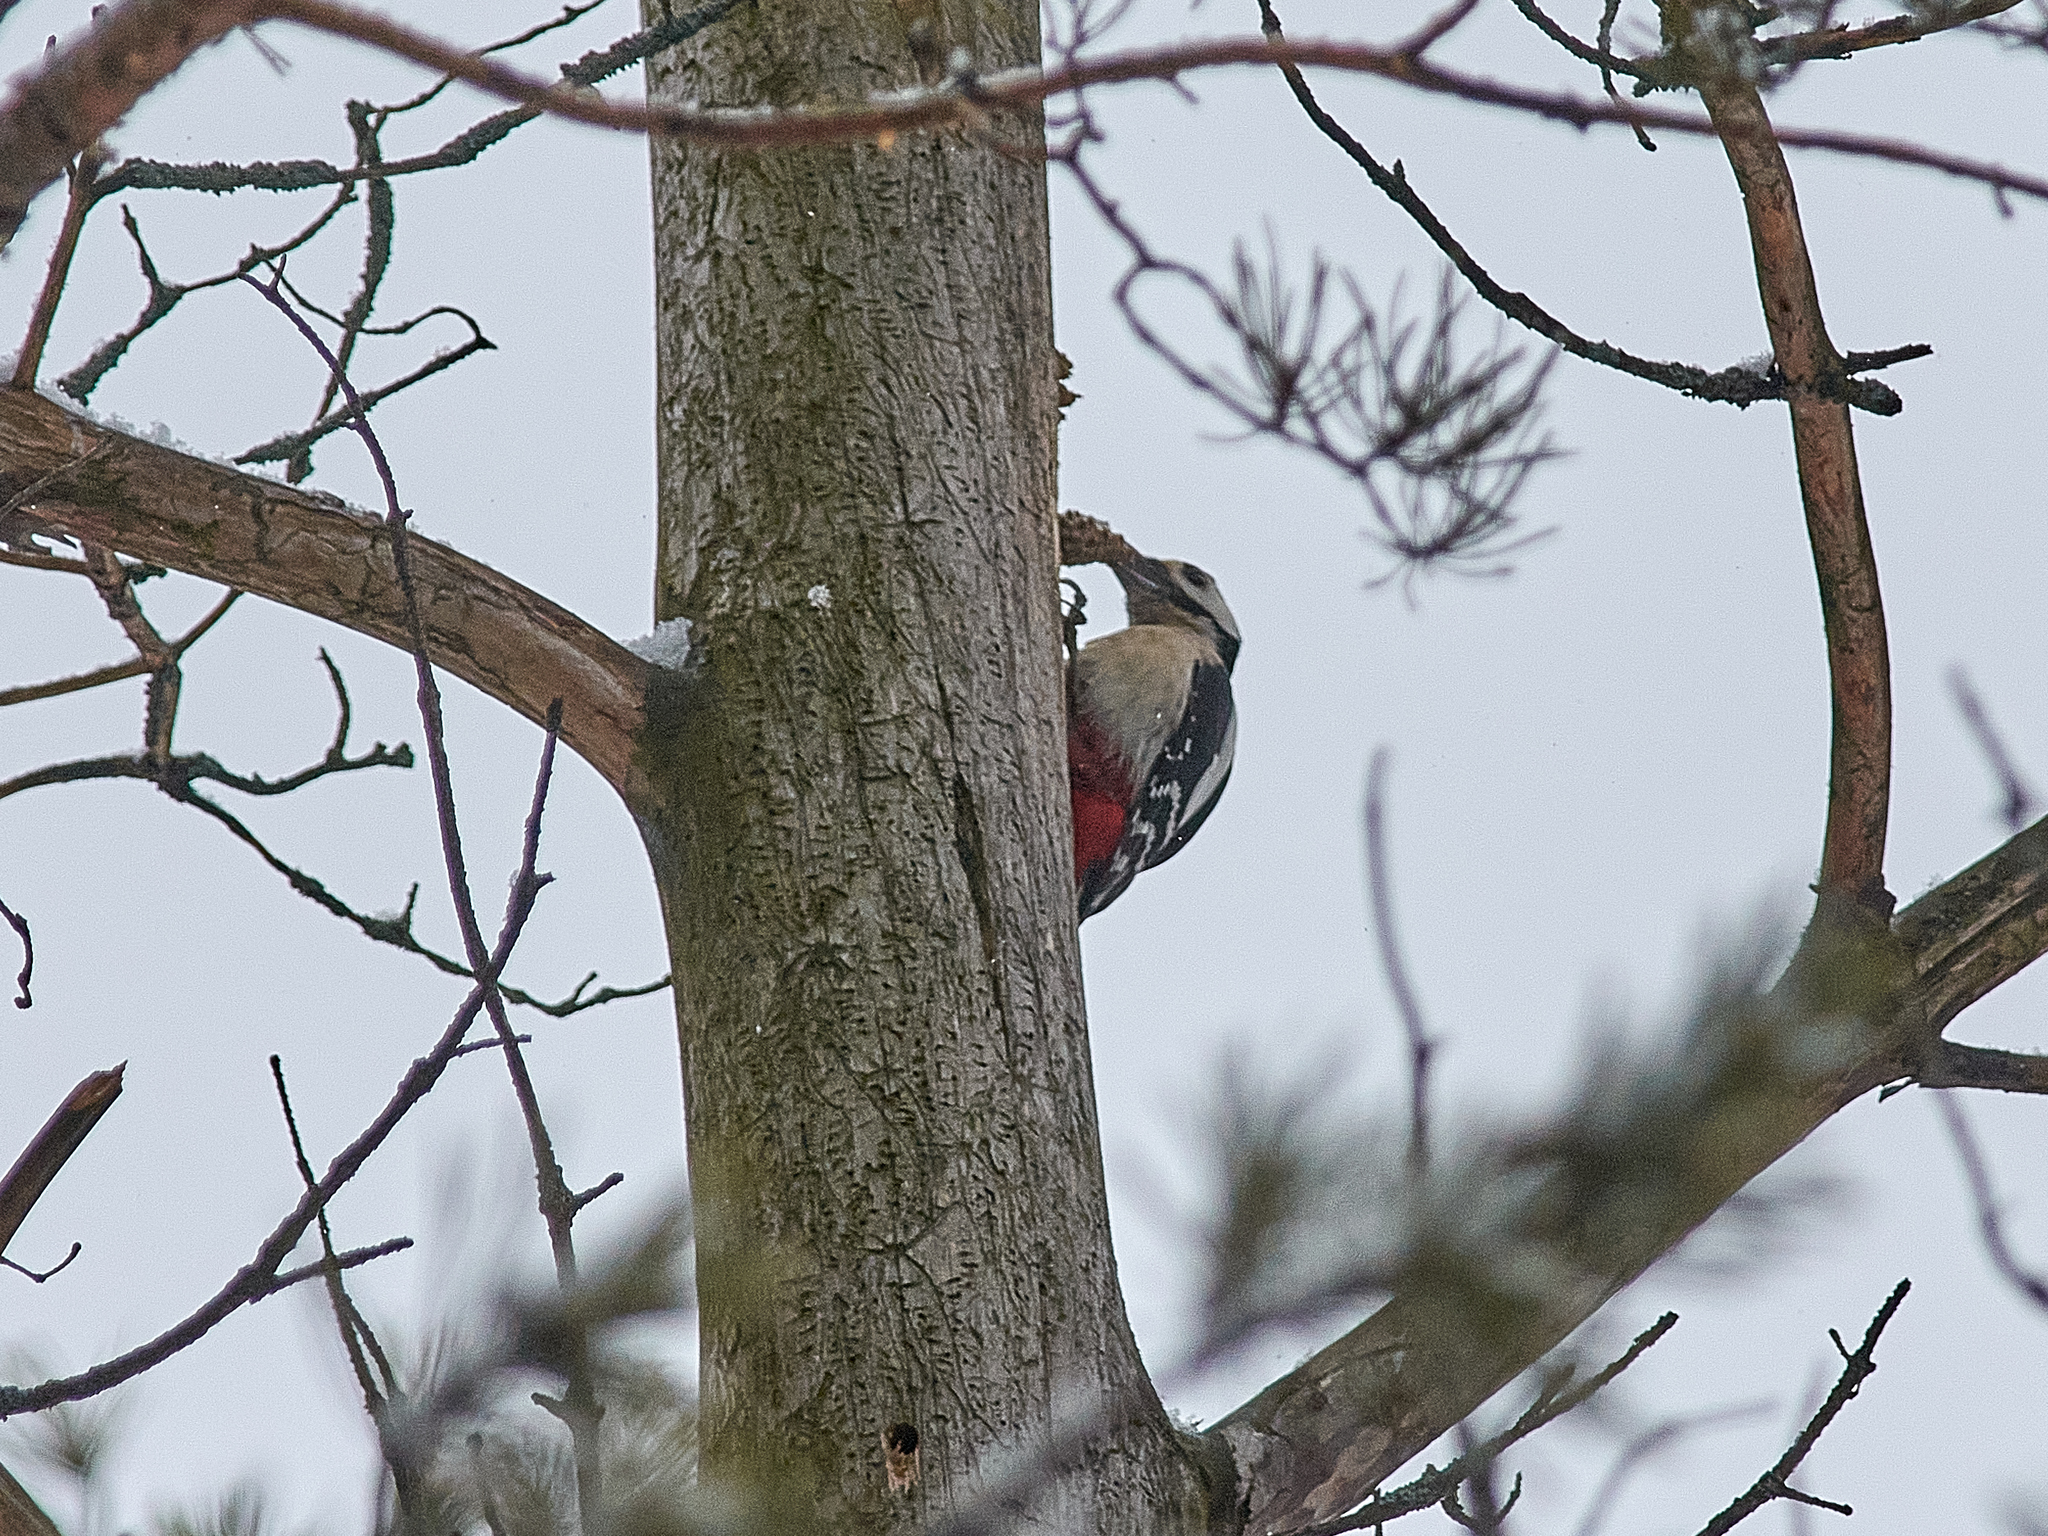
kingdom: Animalia
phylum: Chordata
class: Aves
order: Piciformes
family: Picidae
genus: Dendrocopos
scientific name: Dendrocopos major
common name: Great spotted woodpecker
